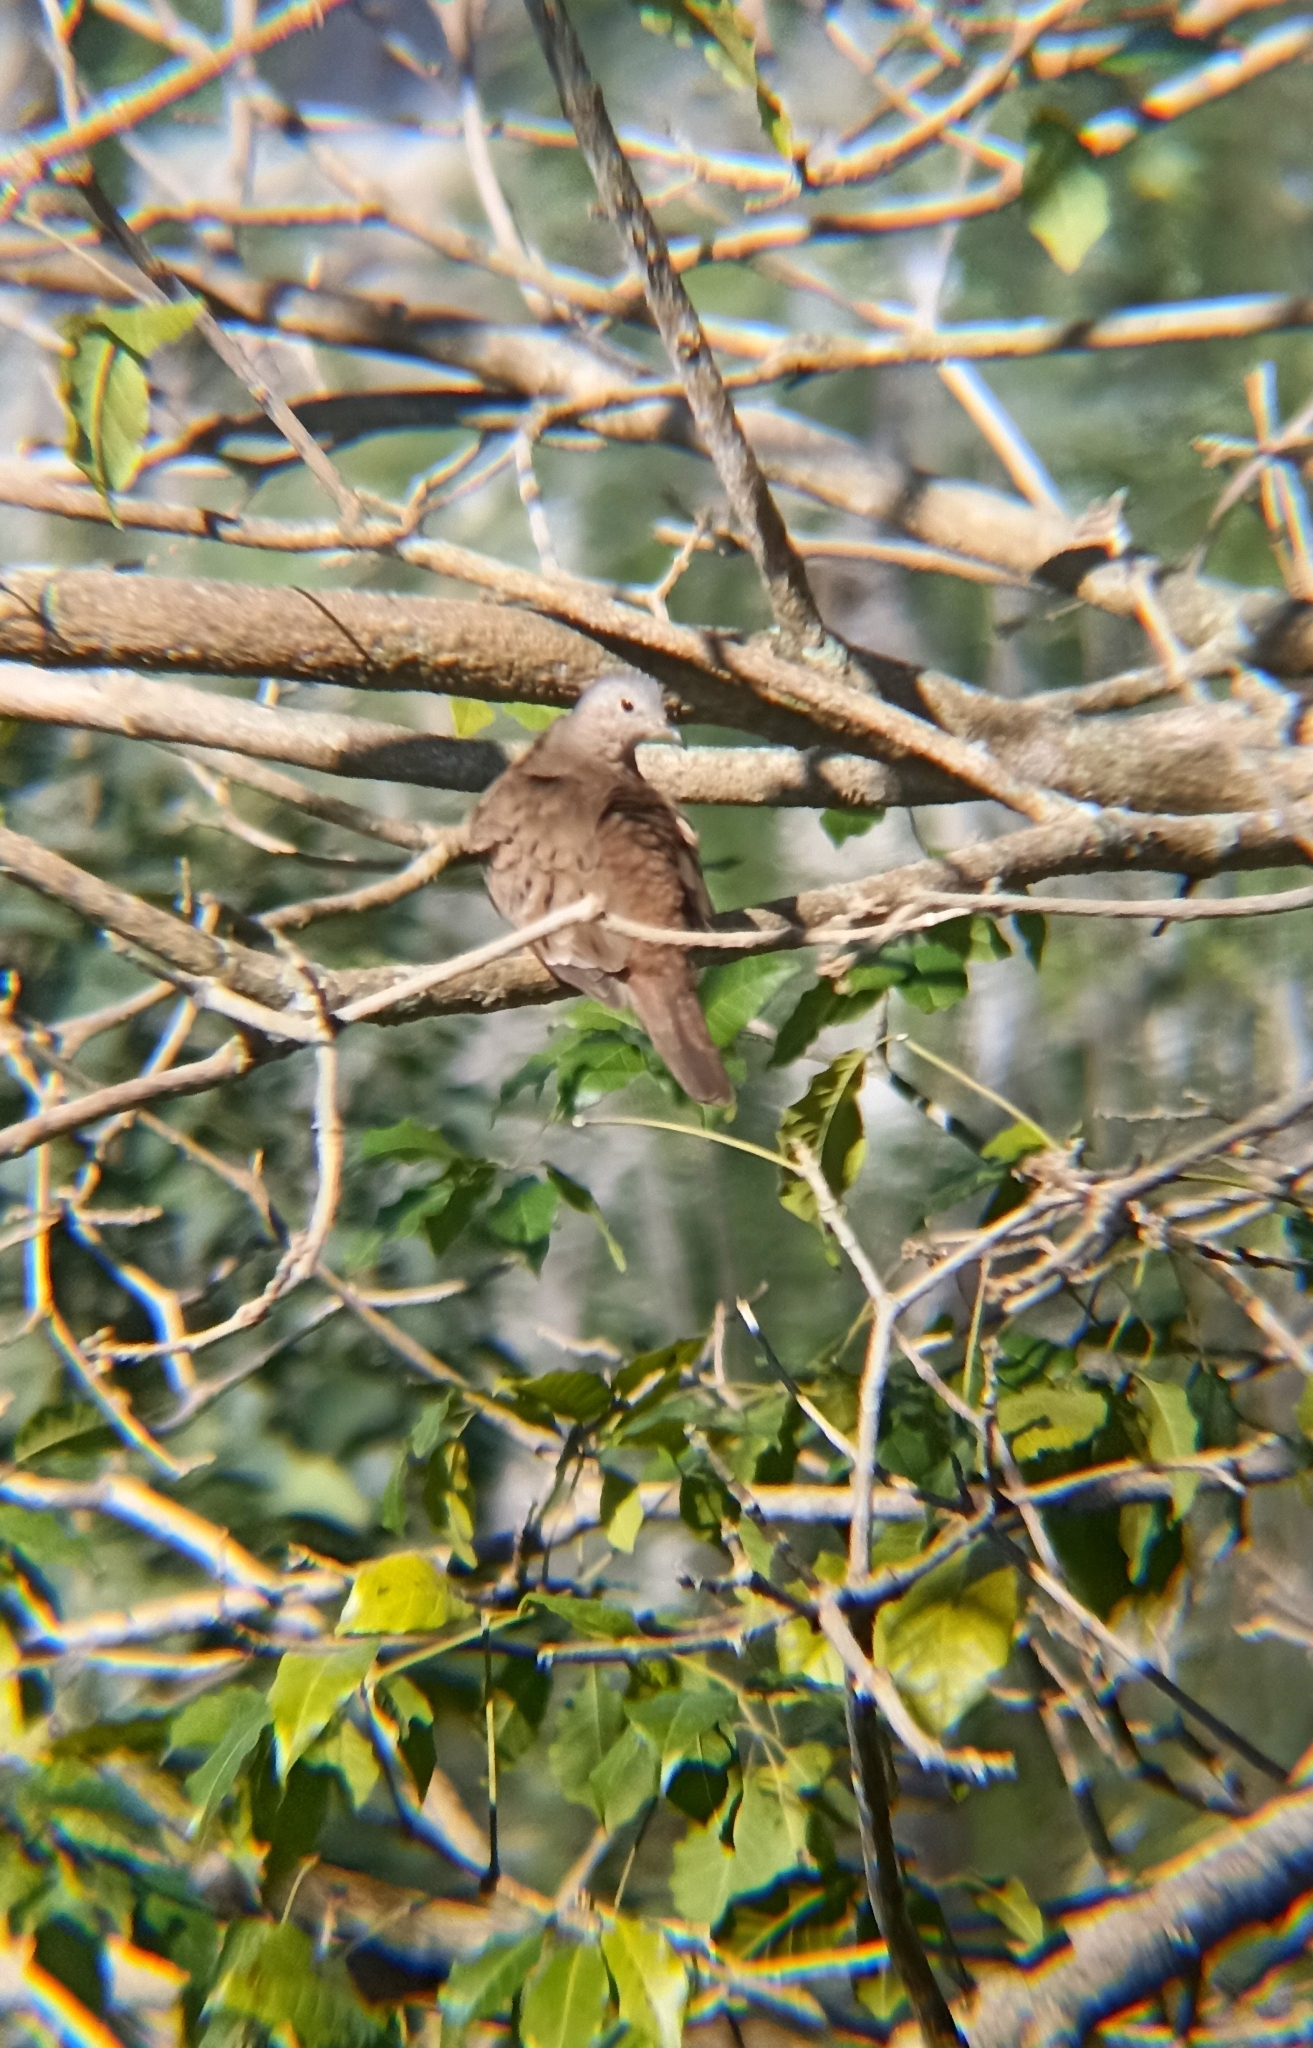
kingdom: Animalia
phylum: Chordata
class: Aves
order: Columbiformes
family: Columbidae
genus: Columbina
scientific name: Columbina talpacoti
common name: Ruddy ground dove
